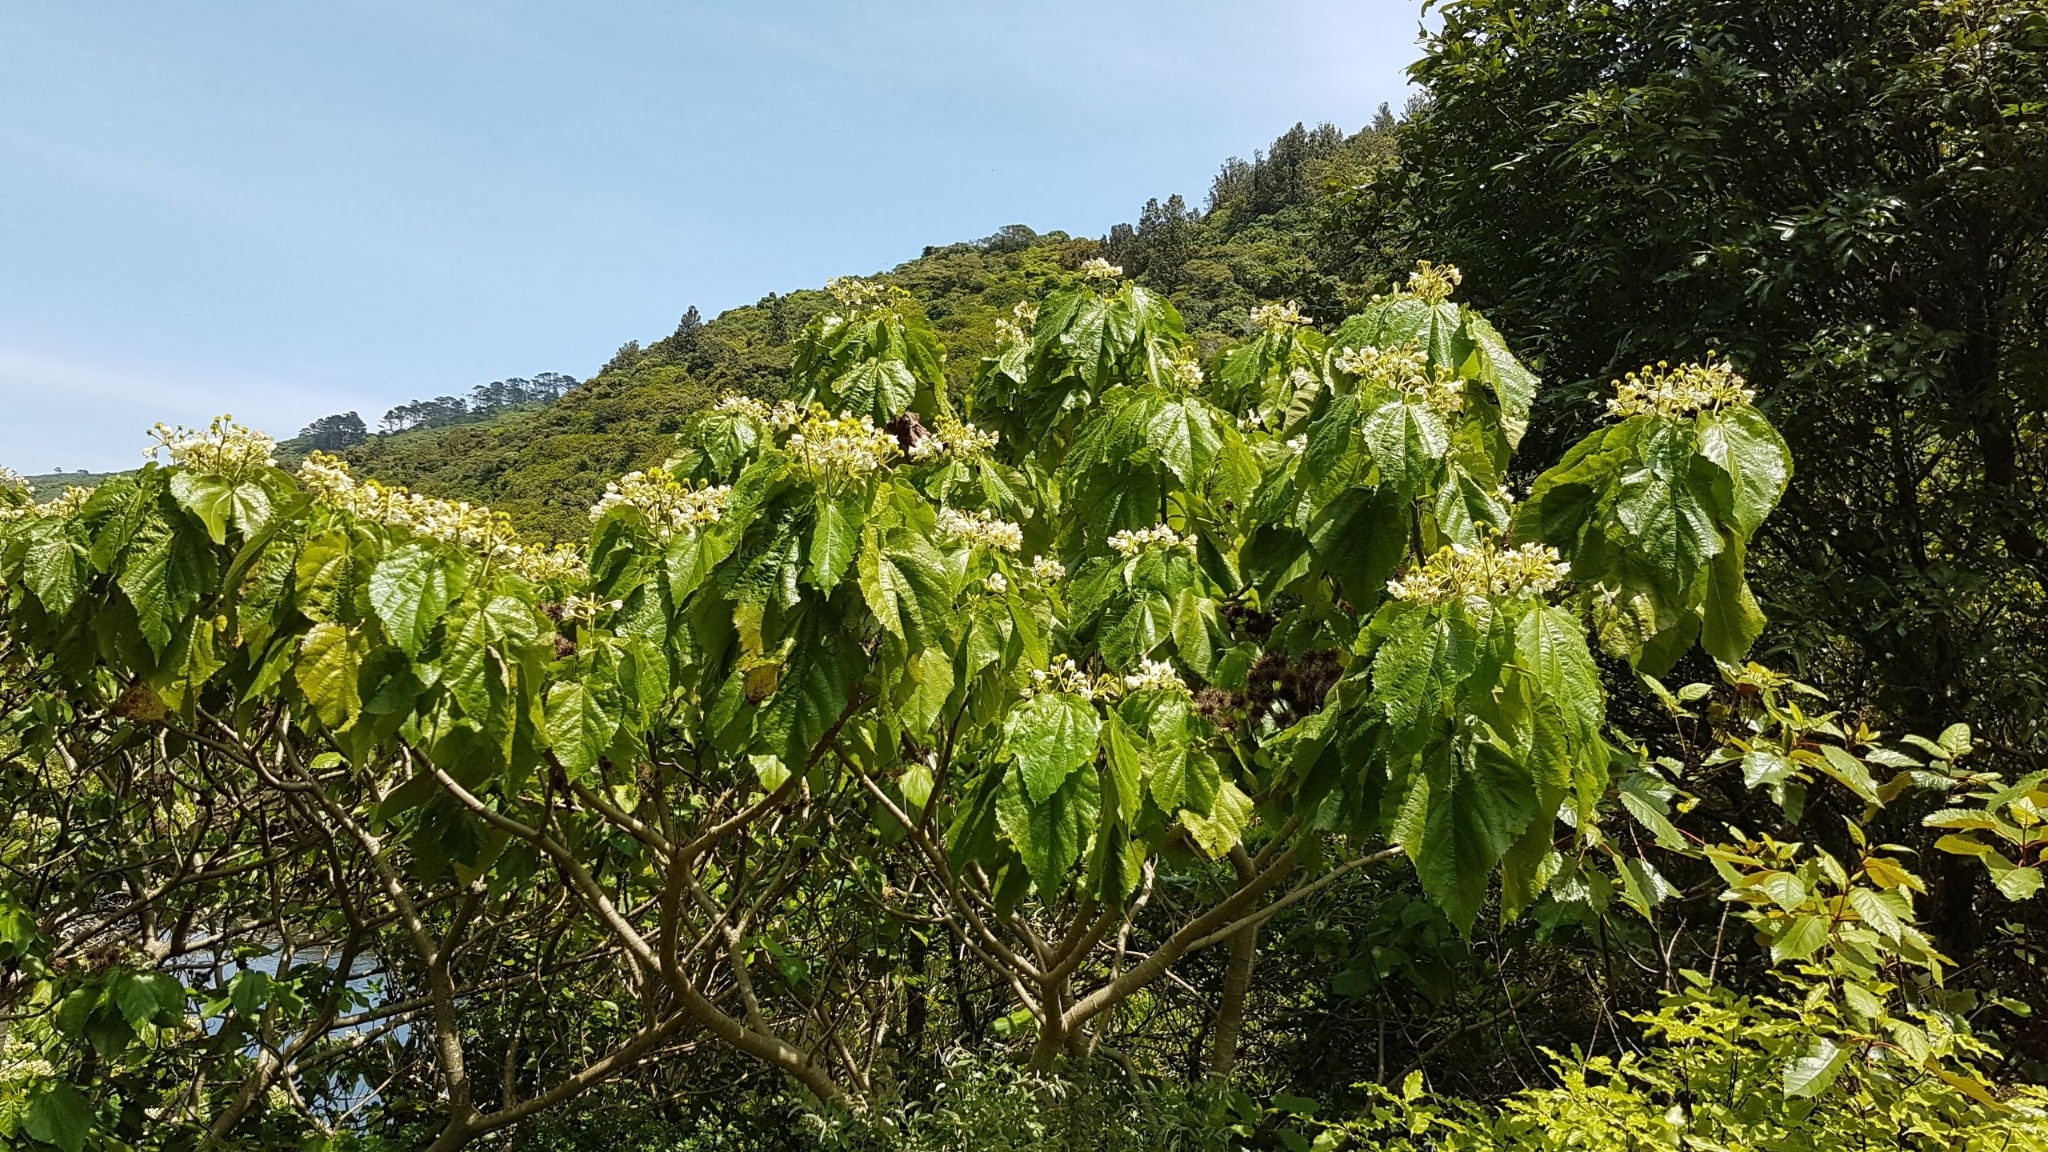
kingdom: Plantae
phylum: Tracheophyta
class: Magnoliopsida
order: Malvales
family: Malvaceae
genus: Entelea
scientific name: Entelea arborescens
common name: New zealand-mulberry
